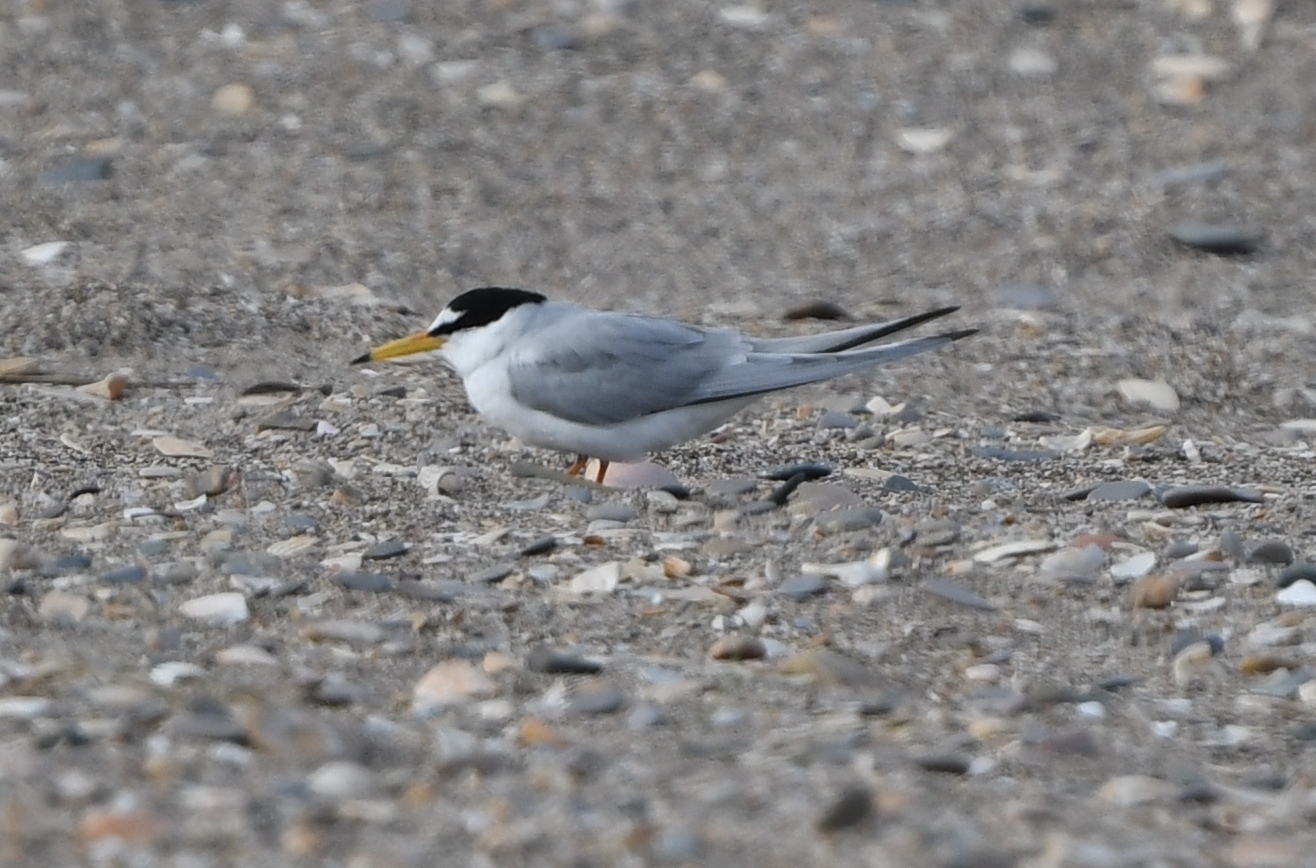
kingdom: Animalia
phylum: Chordata
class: Aves
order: Charadriiformes
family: Laridae
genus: Sternula
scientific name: Sternula albifrons
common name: Little tern
